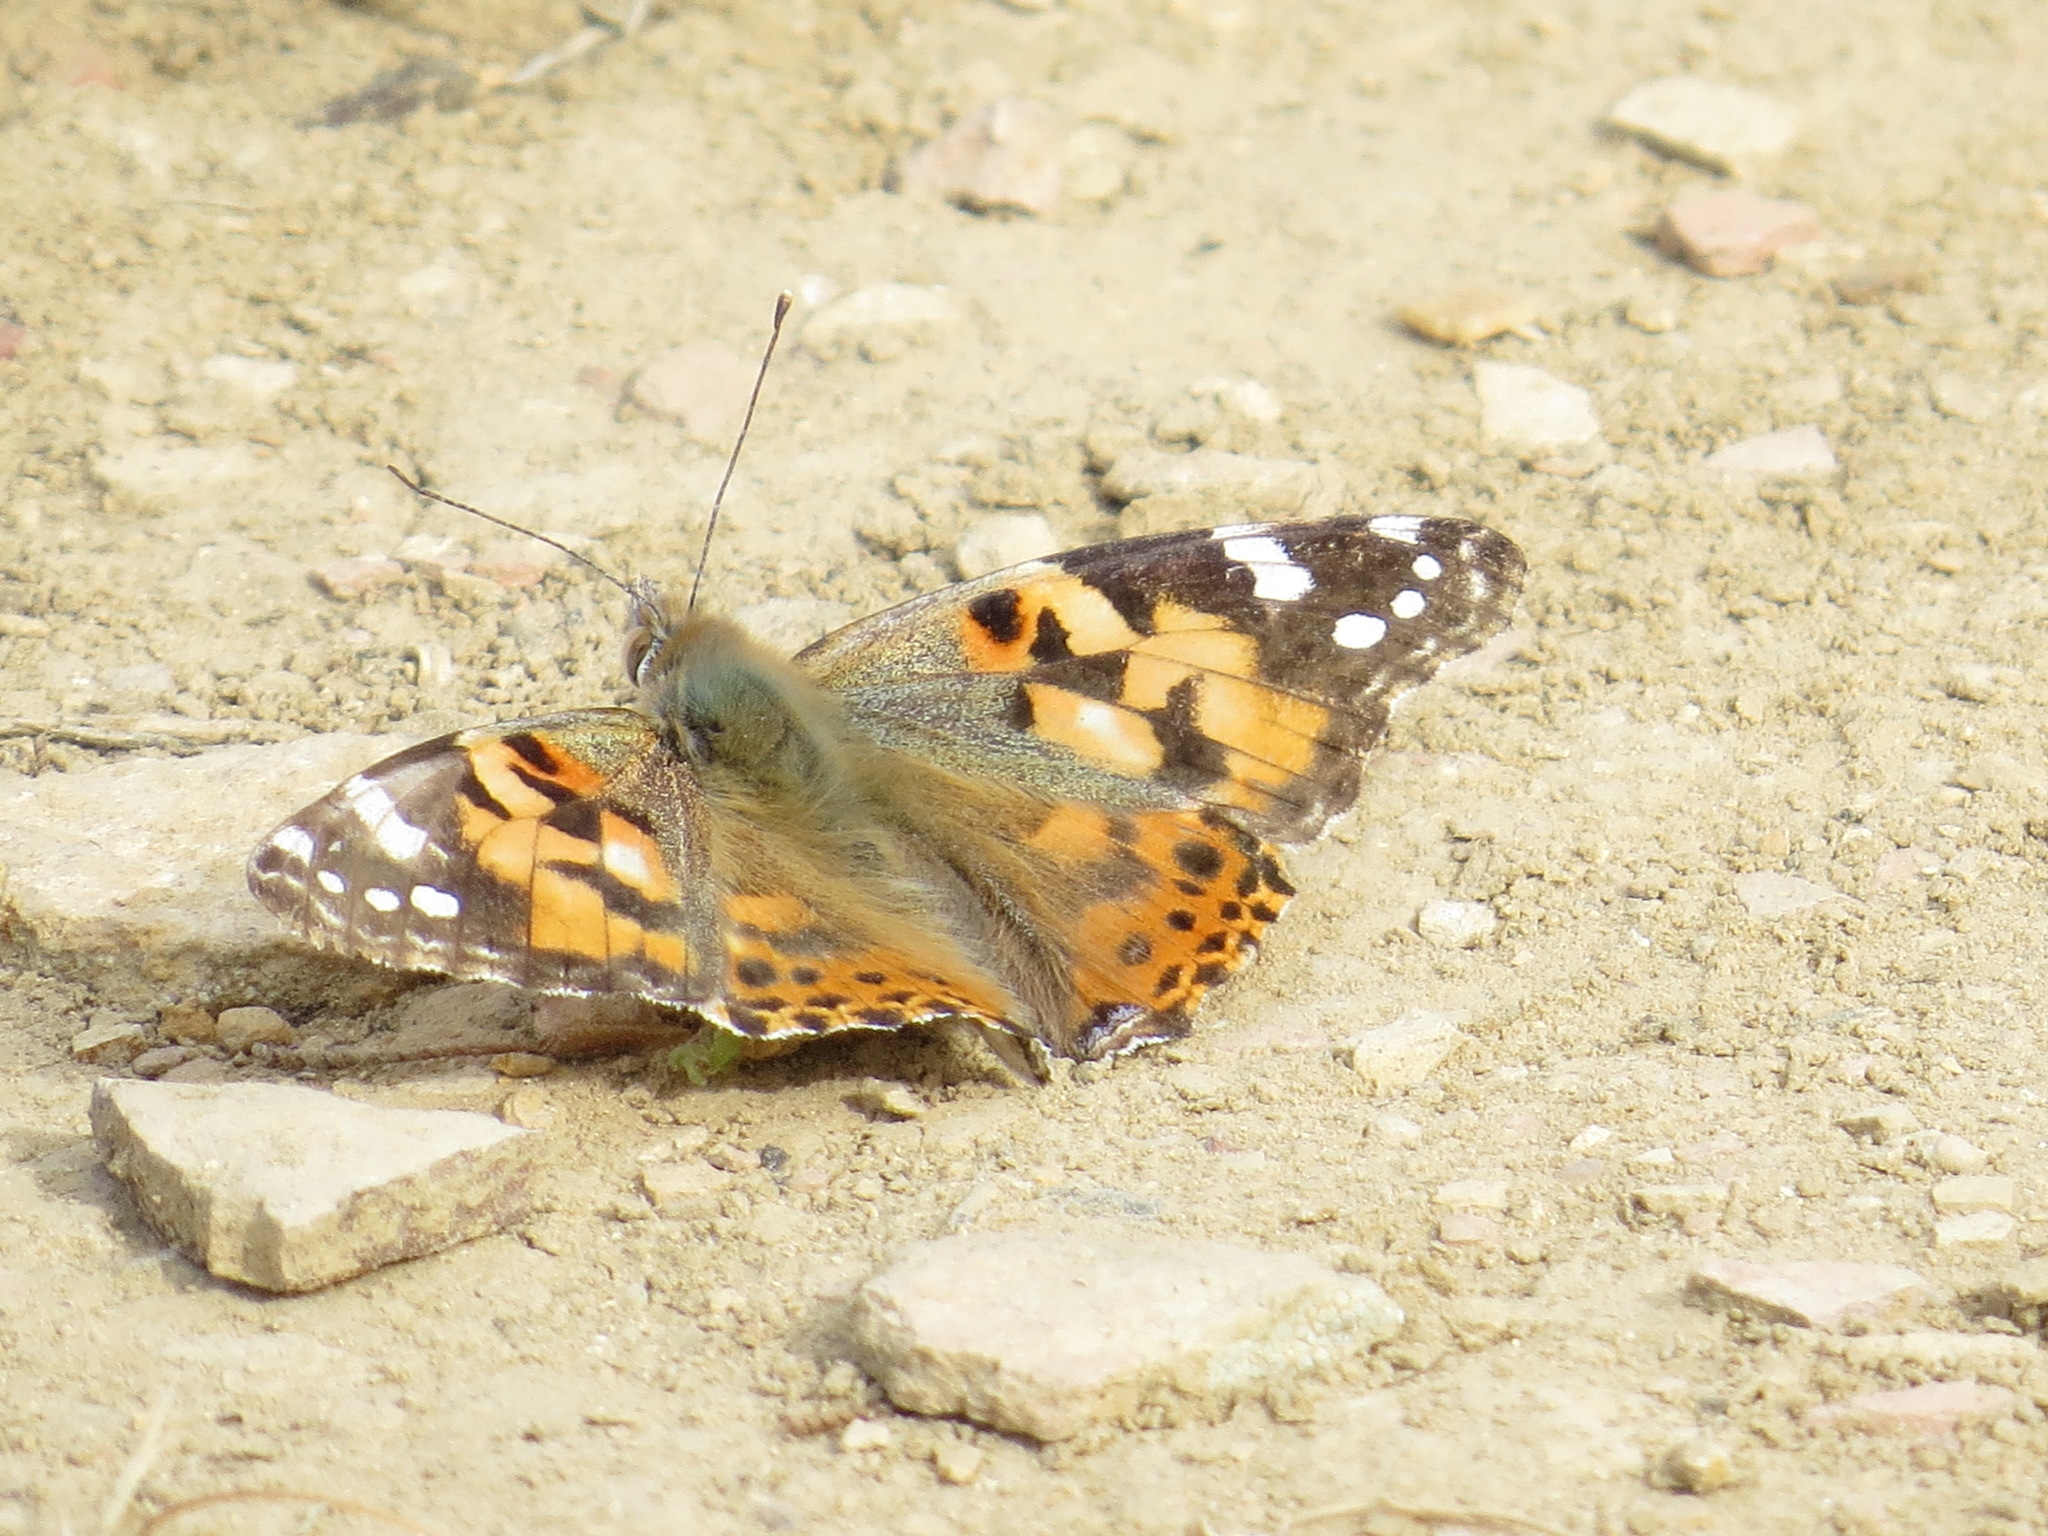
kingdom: Animalia
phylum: Arthropoda
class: Insecta
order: Lepidoptera
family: Nymphalidae
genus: Vanessa
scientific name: Vanessa cardui
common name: Painted lady
